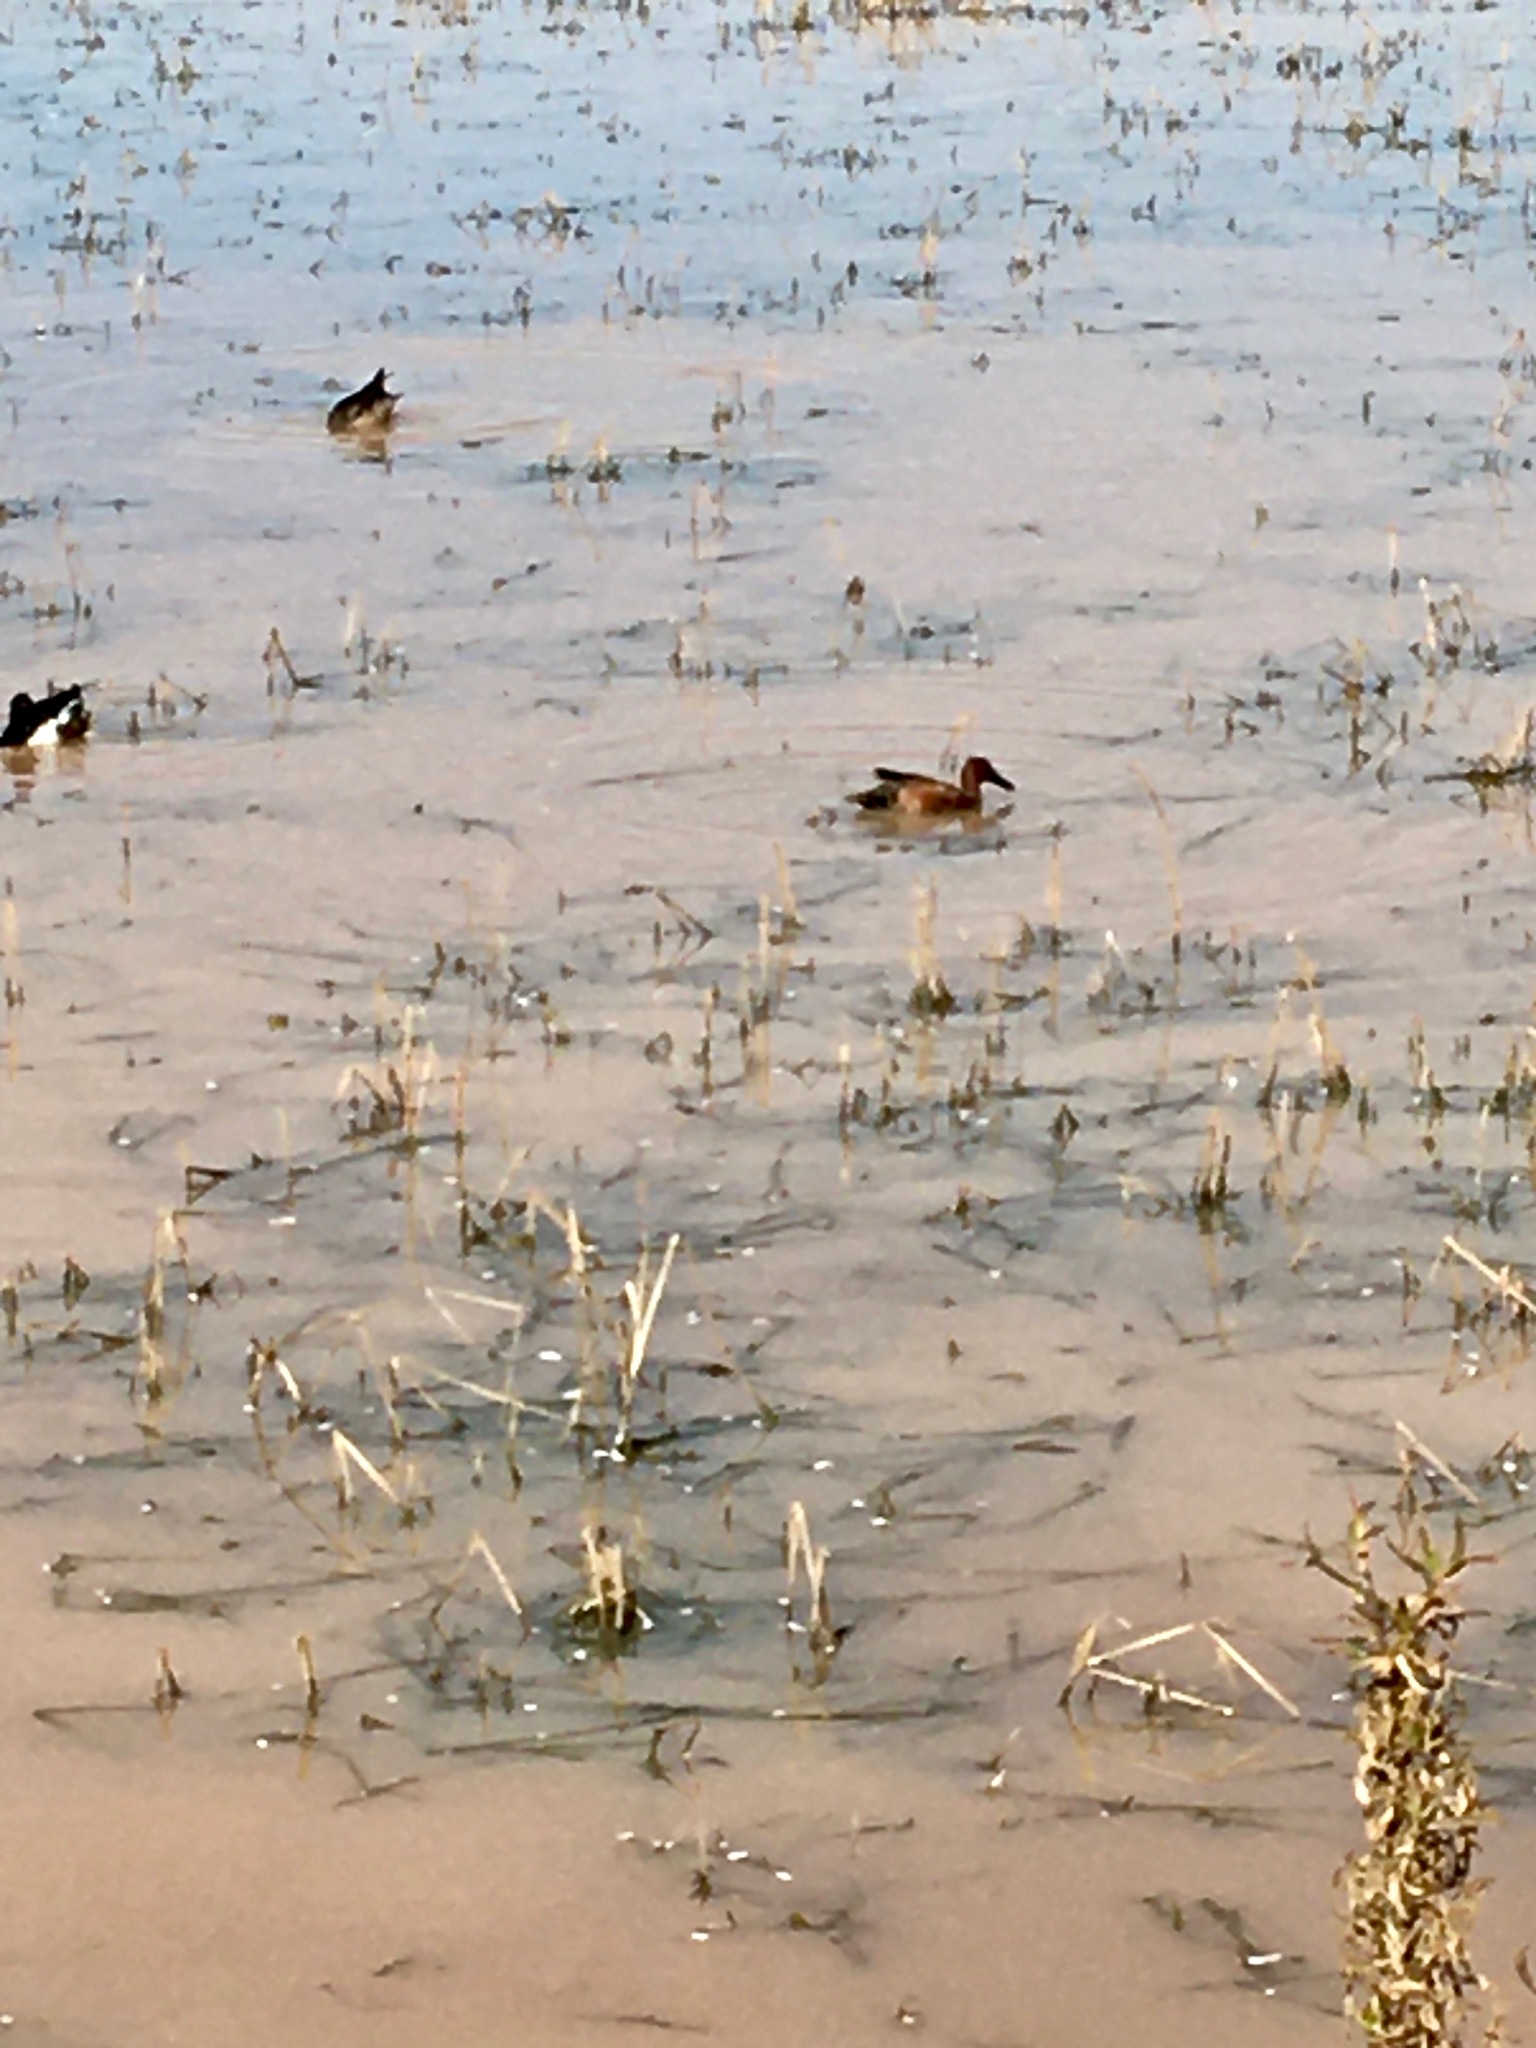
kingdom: Animalia
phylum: Chordata
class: Aves
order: Anseriformes
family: Anatidae
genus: Spatula
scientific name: Spatula cyanoptera
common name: Cinnamon teal
